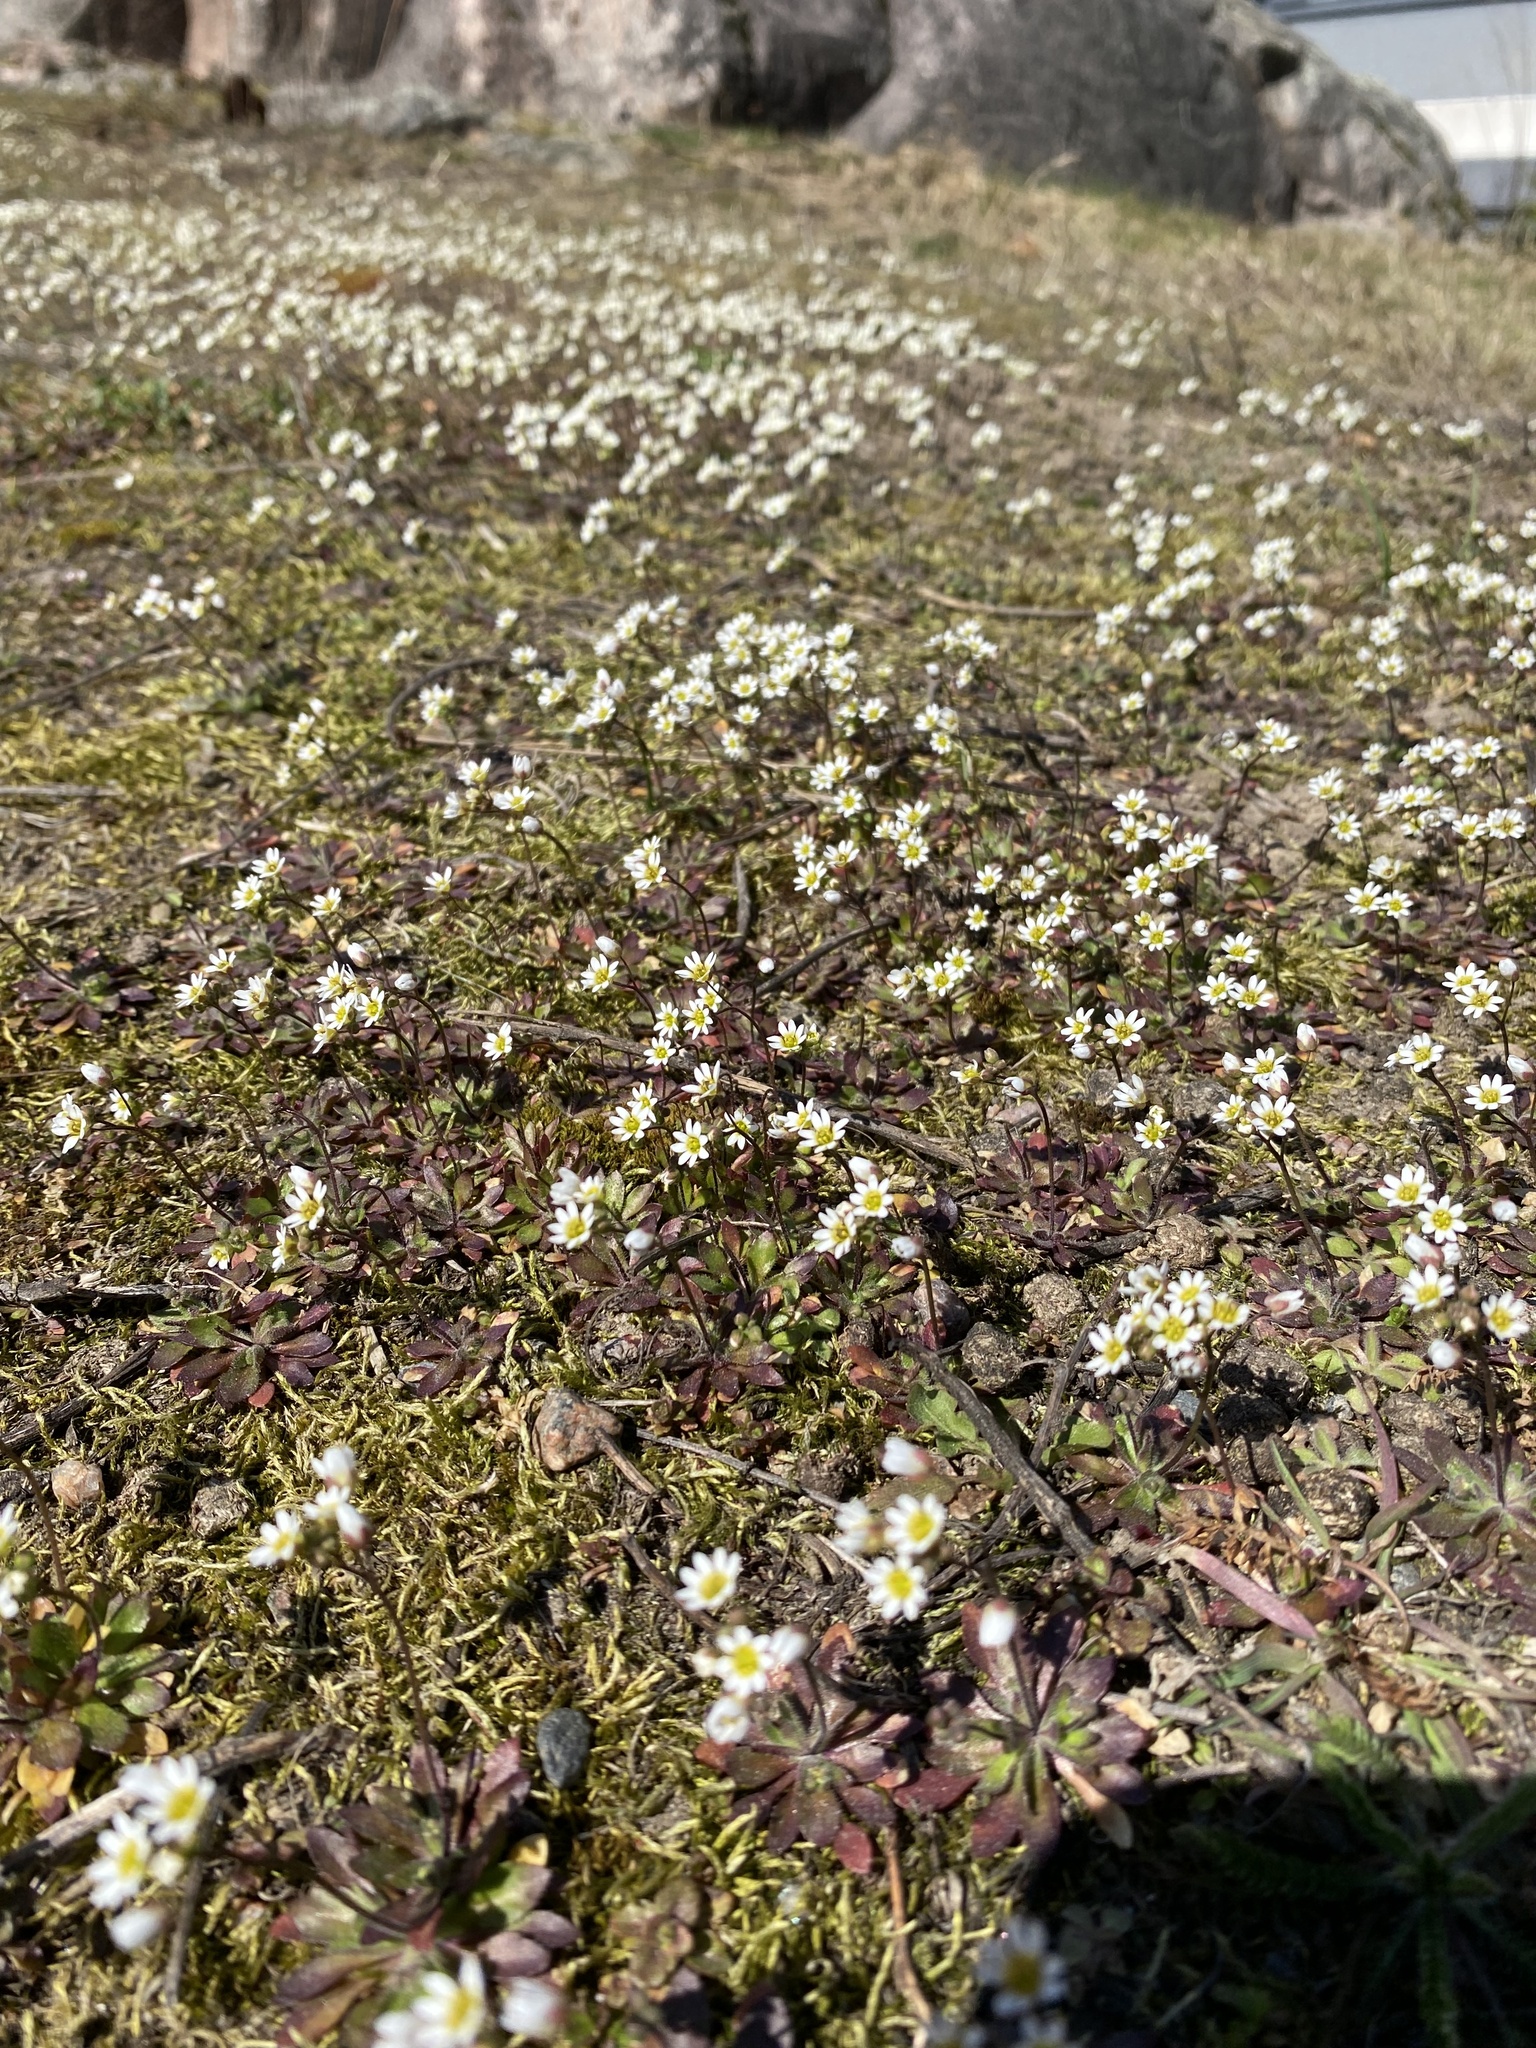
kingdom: Plantae
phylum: Tracheophyta
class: Magnoliopsida
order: Brassicales
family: Brassicaceae
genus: Draba
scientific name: Draba verna
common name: Spring draba
